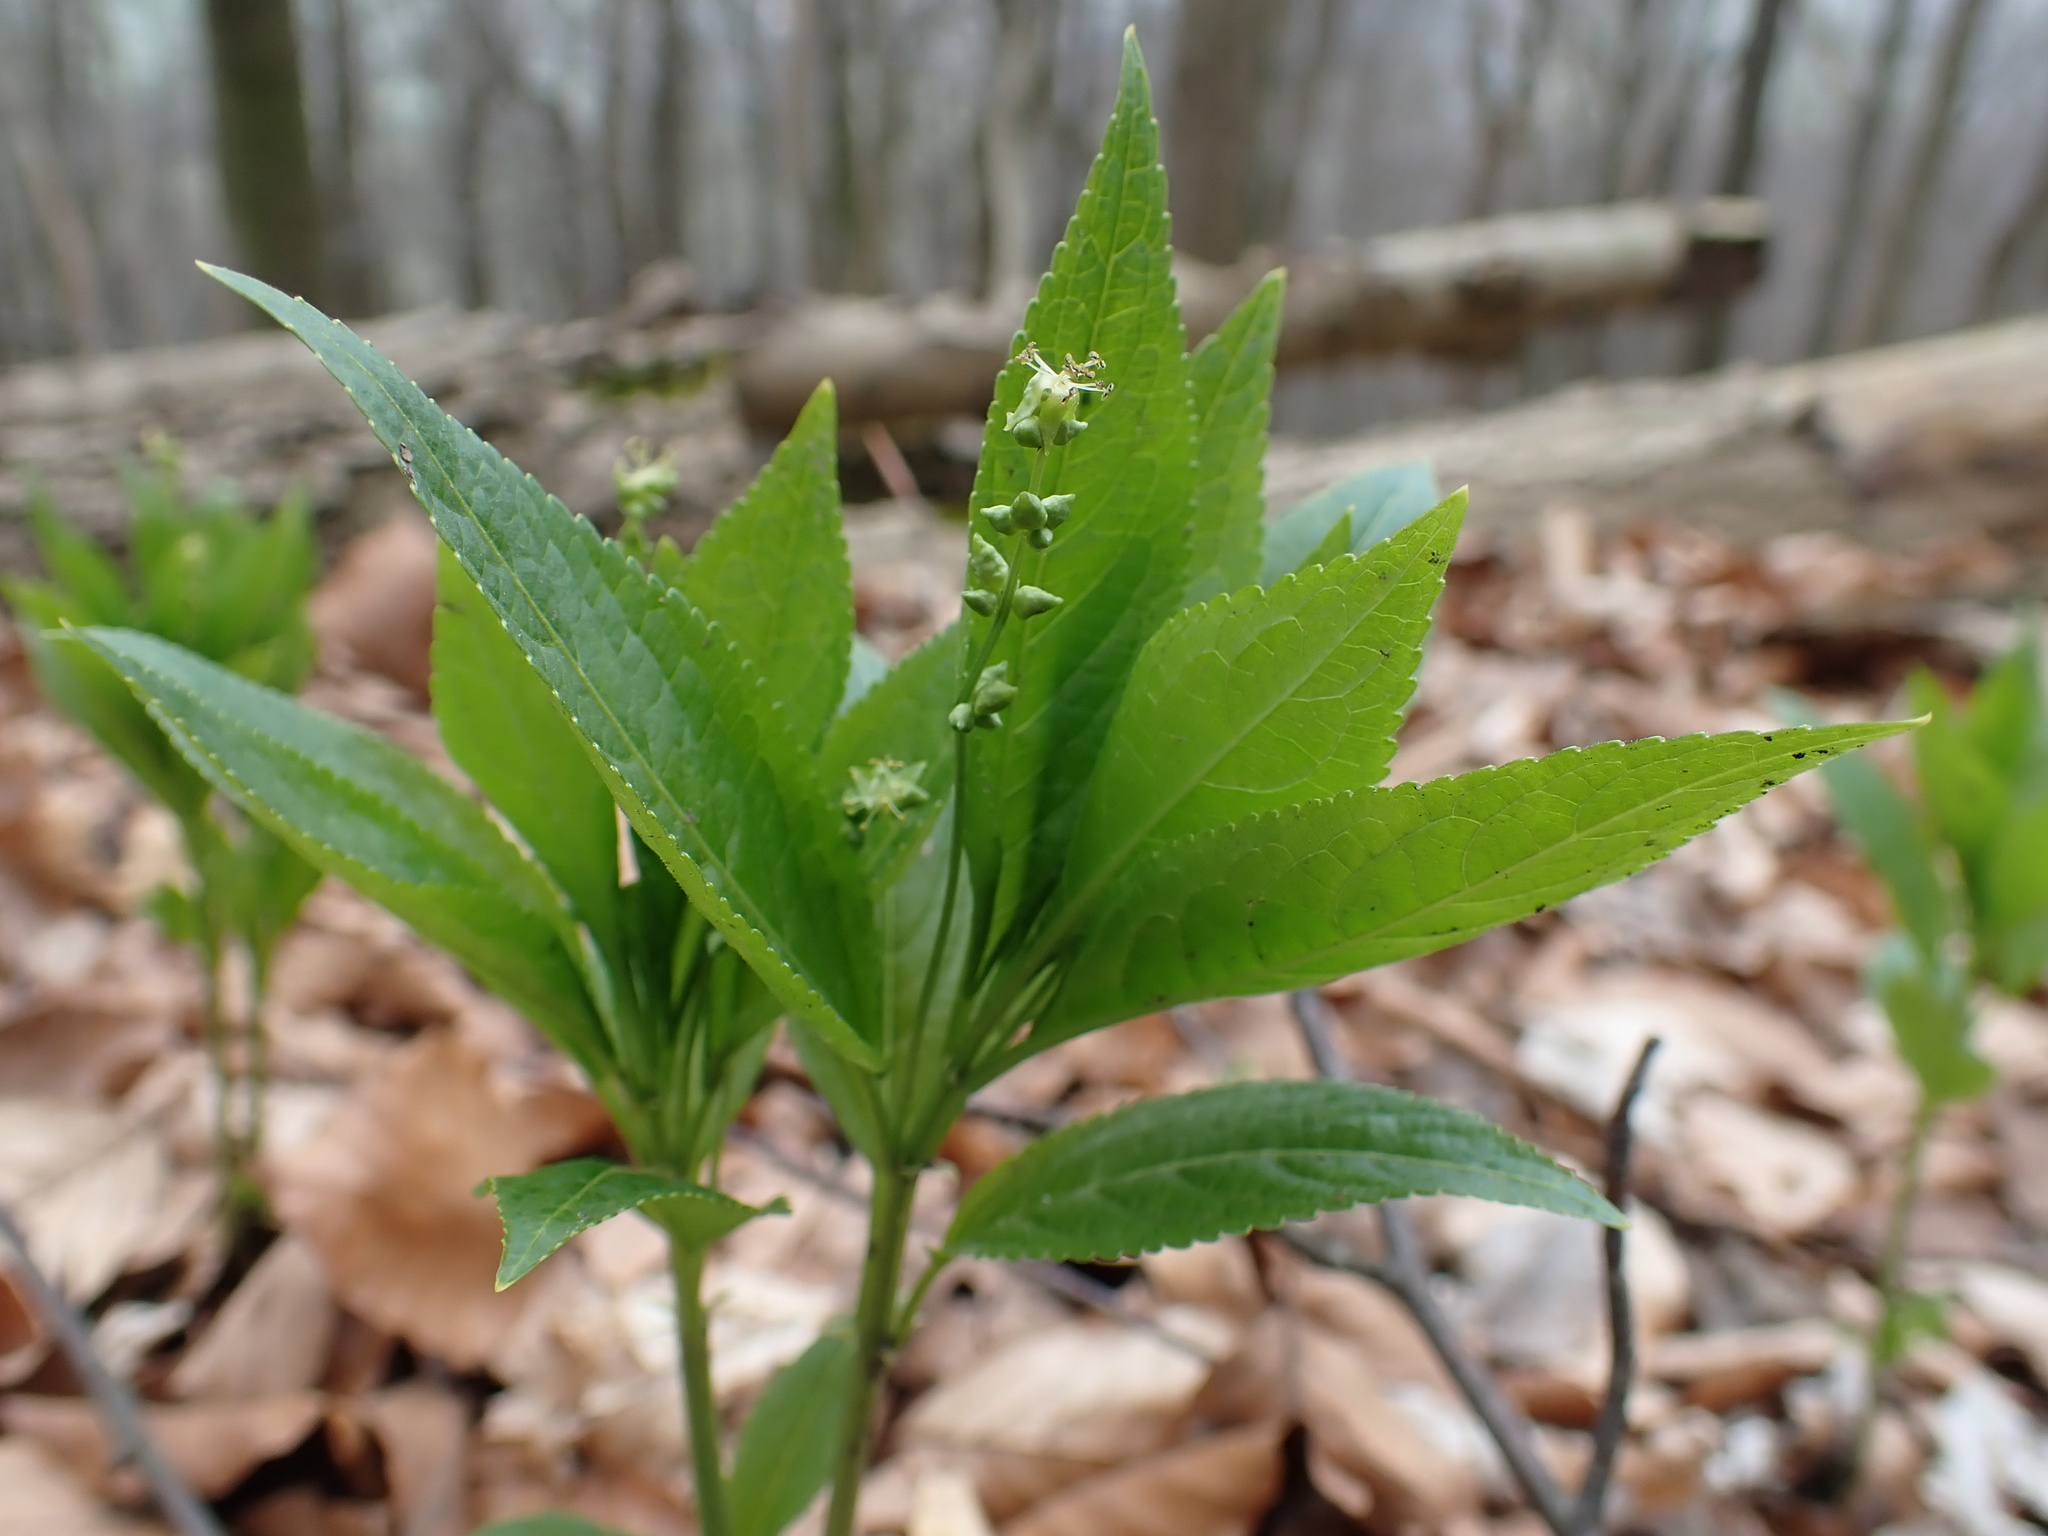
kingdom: Plantae
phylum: Tracheophyta
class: Magnoliopsida
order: Malpighiales
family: Euphorbiaceae
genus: Mercurialis
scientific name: Mercurialis perennis
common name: Dog mercury
